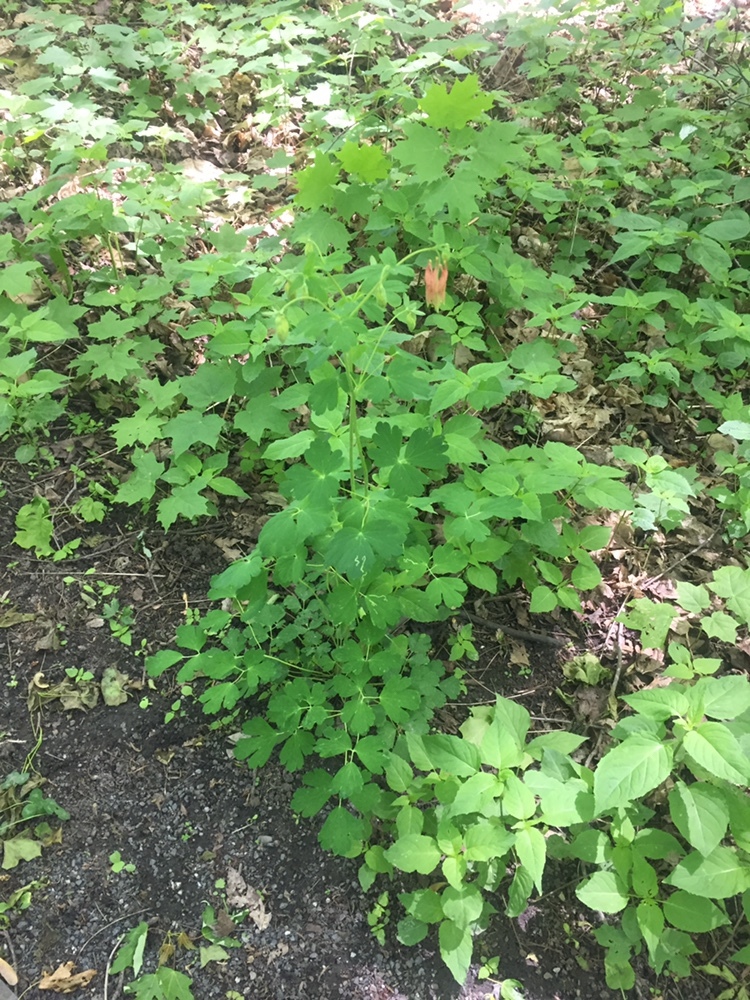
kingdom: Plantae
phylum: Tracheophyta
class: Magnoliopsida
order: Ranunculales
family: Ranunculaceae
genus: Aquilegia
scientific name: Aquilegia canadensis
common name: American columbine
